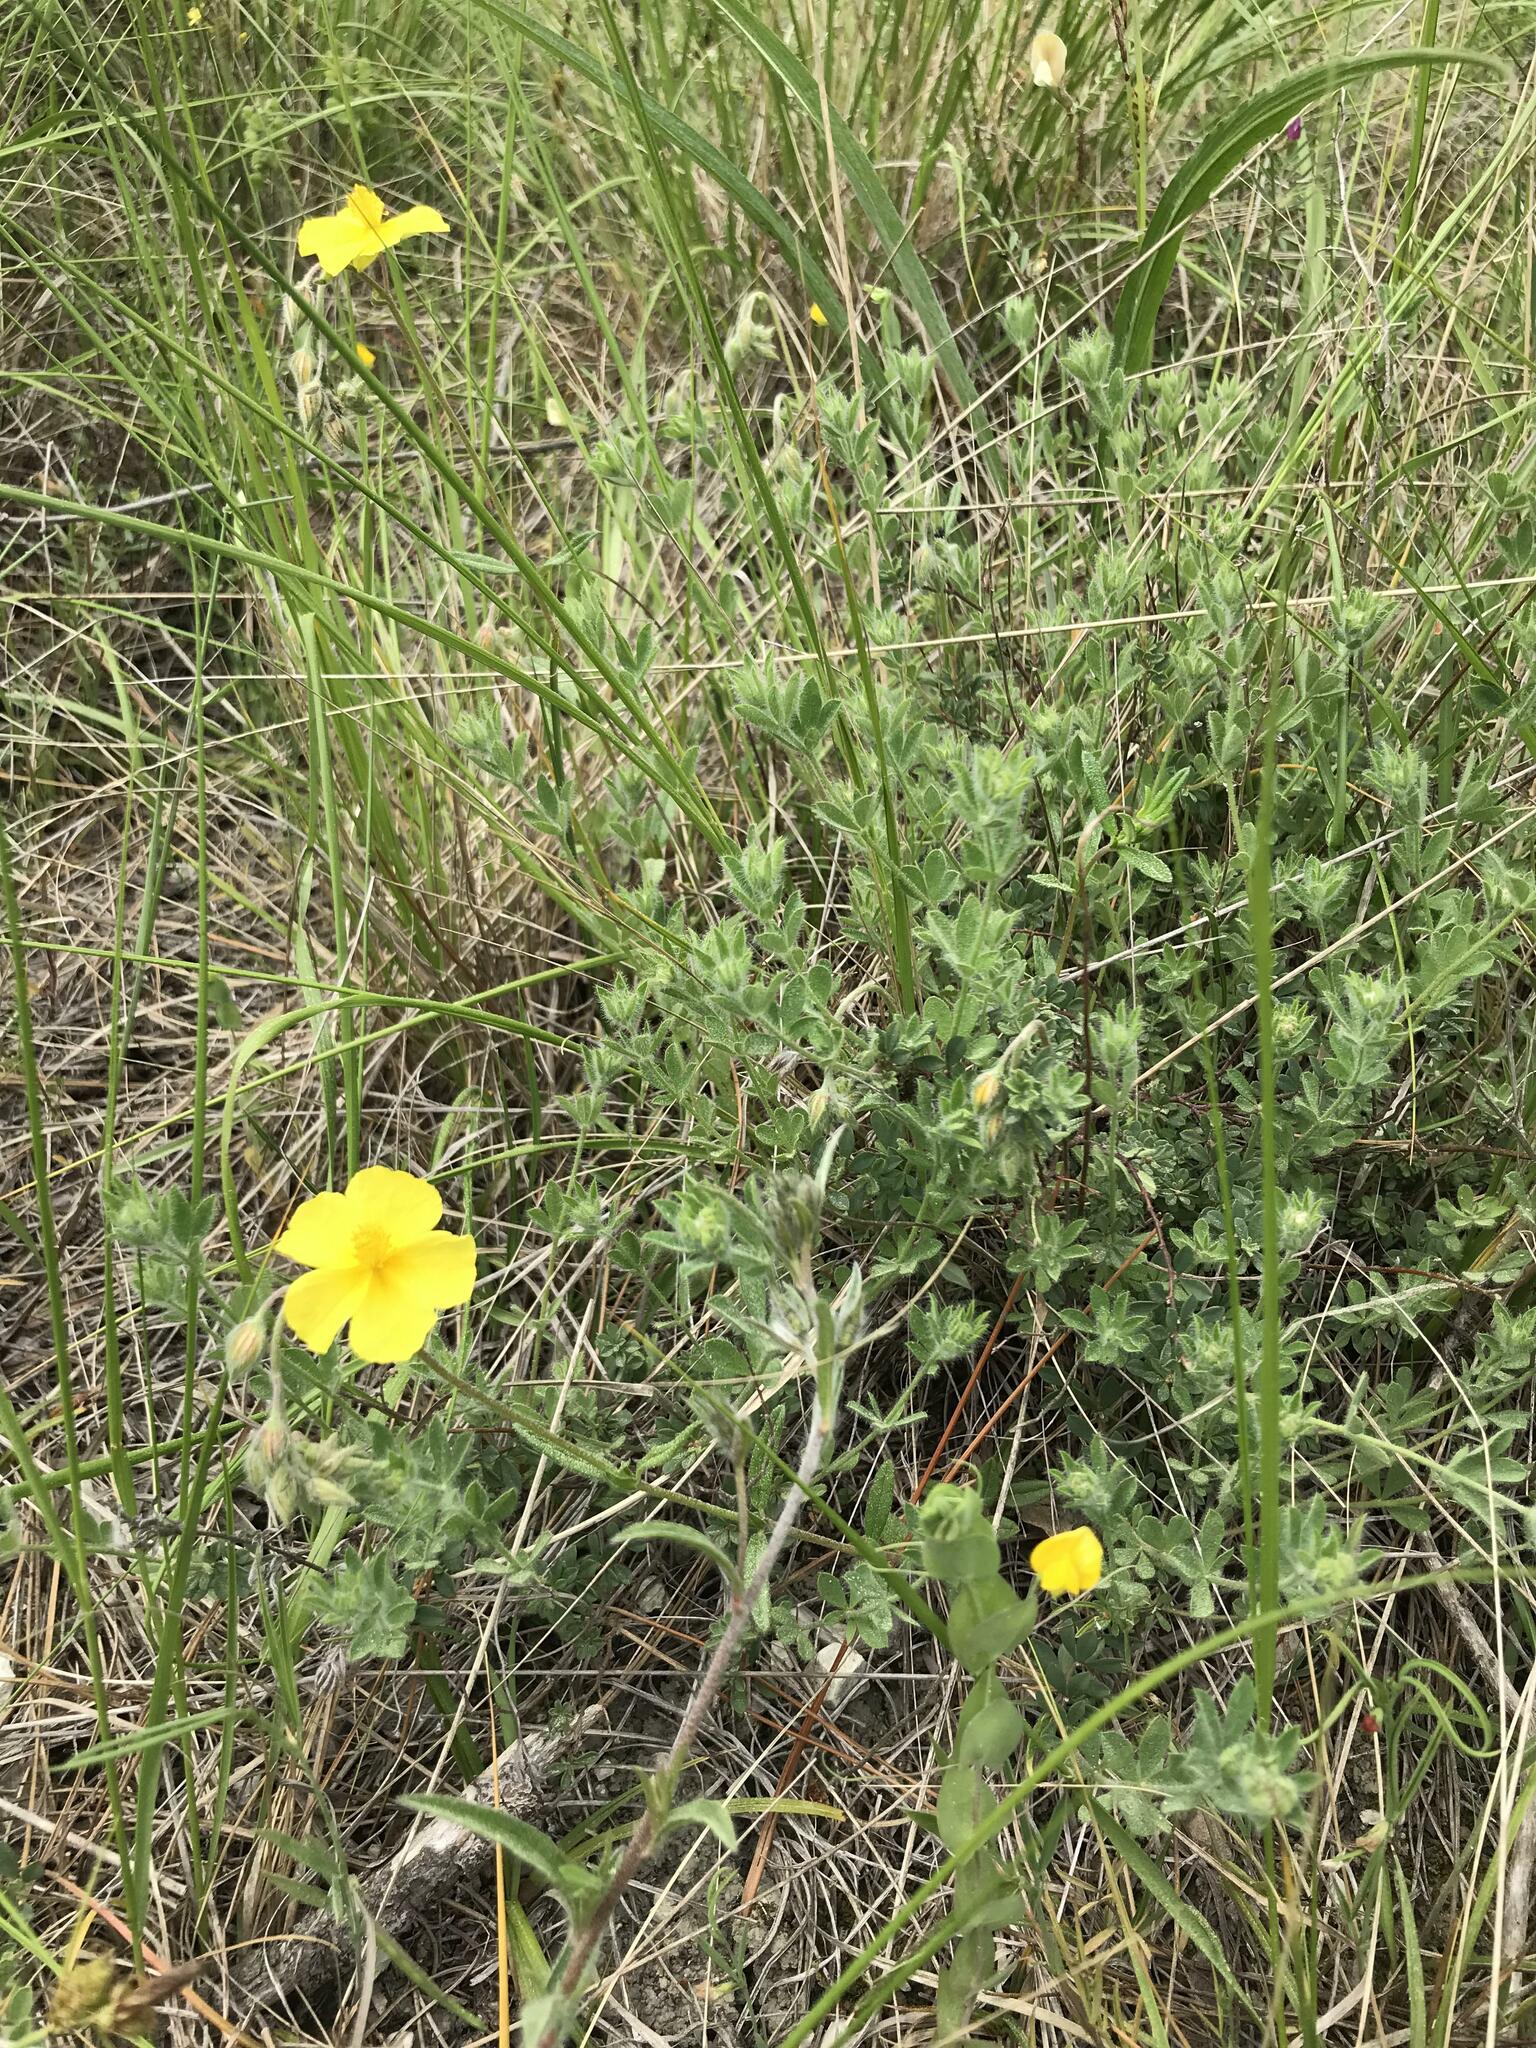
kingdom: Plantae
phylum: Tracheophyta
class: Magnoliopsida
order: Malvales
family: Cistaceae
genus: Helianthemum
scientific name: Helianthemum nummularium
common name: Common rock-rose
